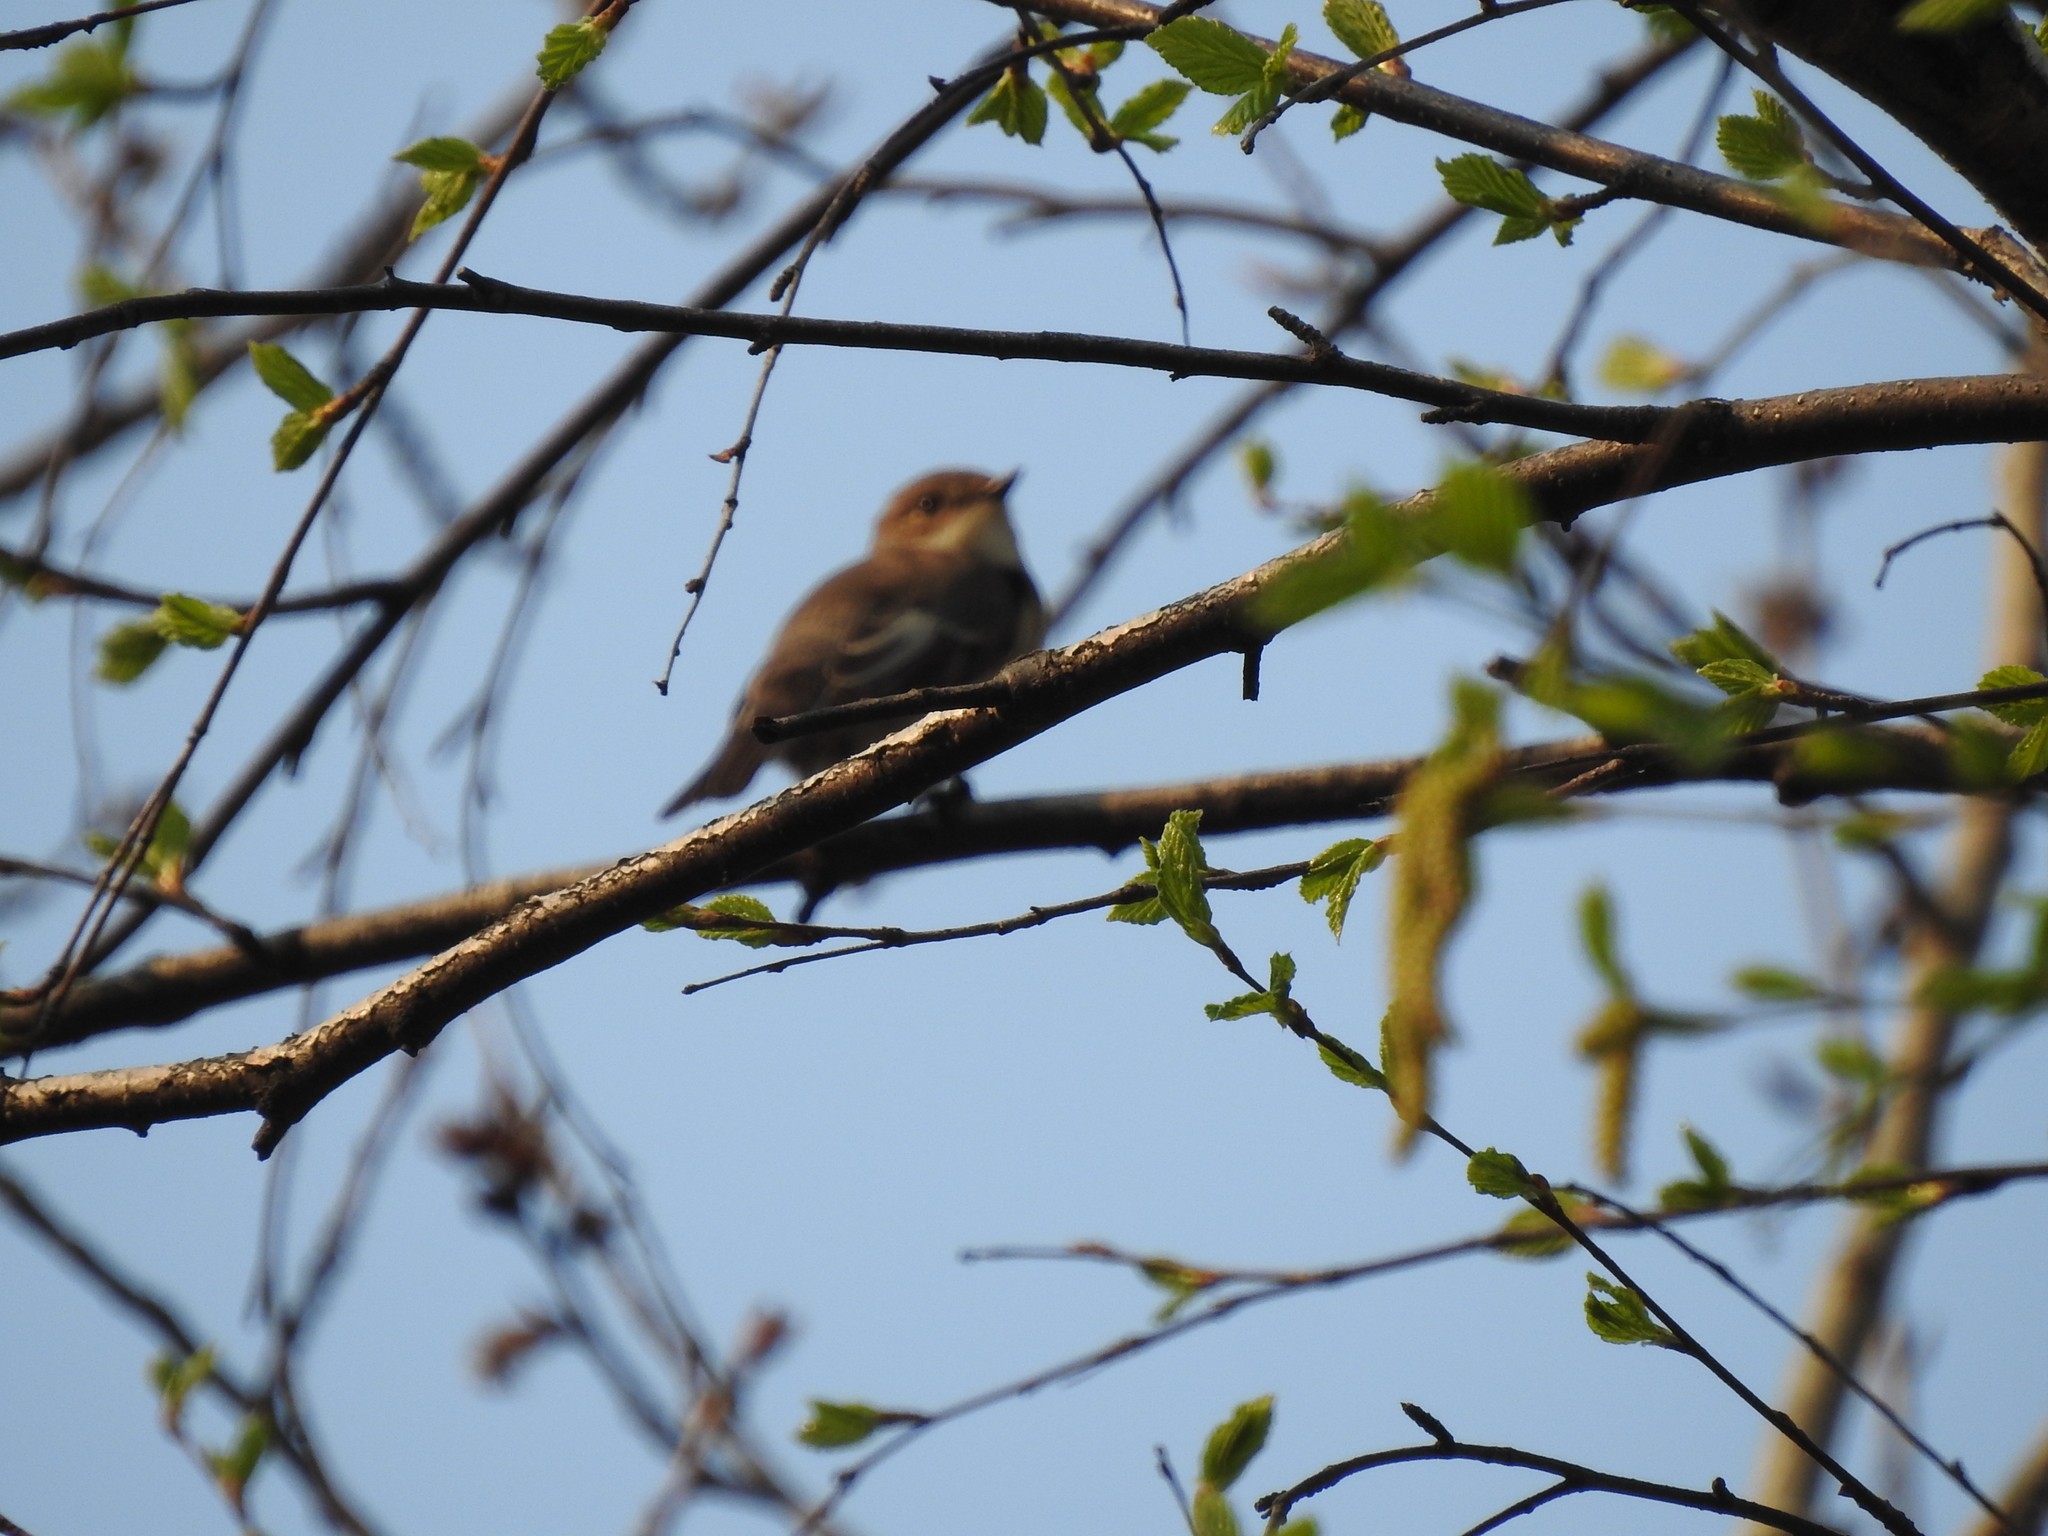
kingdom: Animalia
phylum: Chordata
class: Aves
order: Passeriformes
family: Muscicapidae
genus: Ficedula
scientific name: Ficedula hypoleuca
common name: European pied flycatcher
